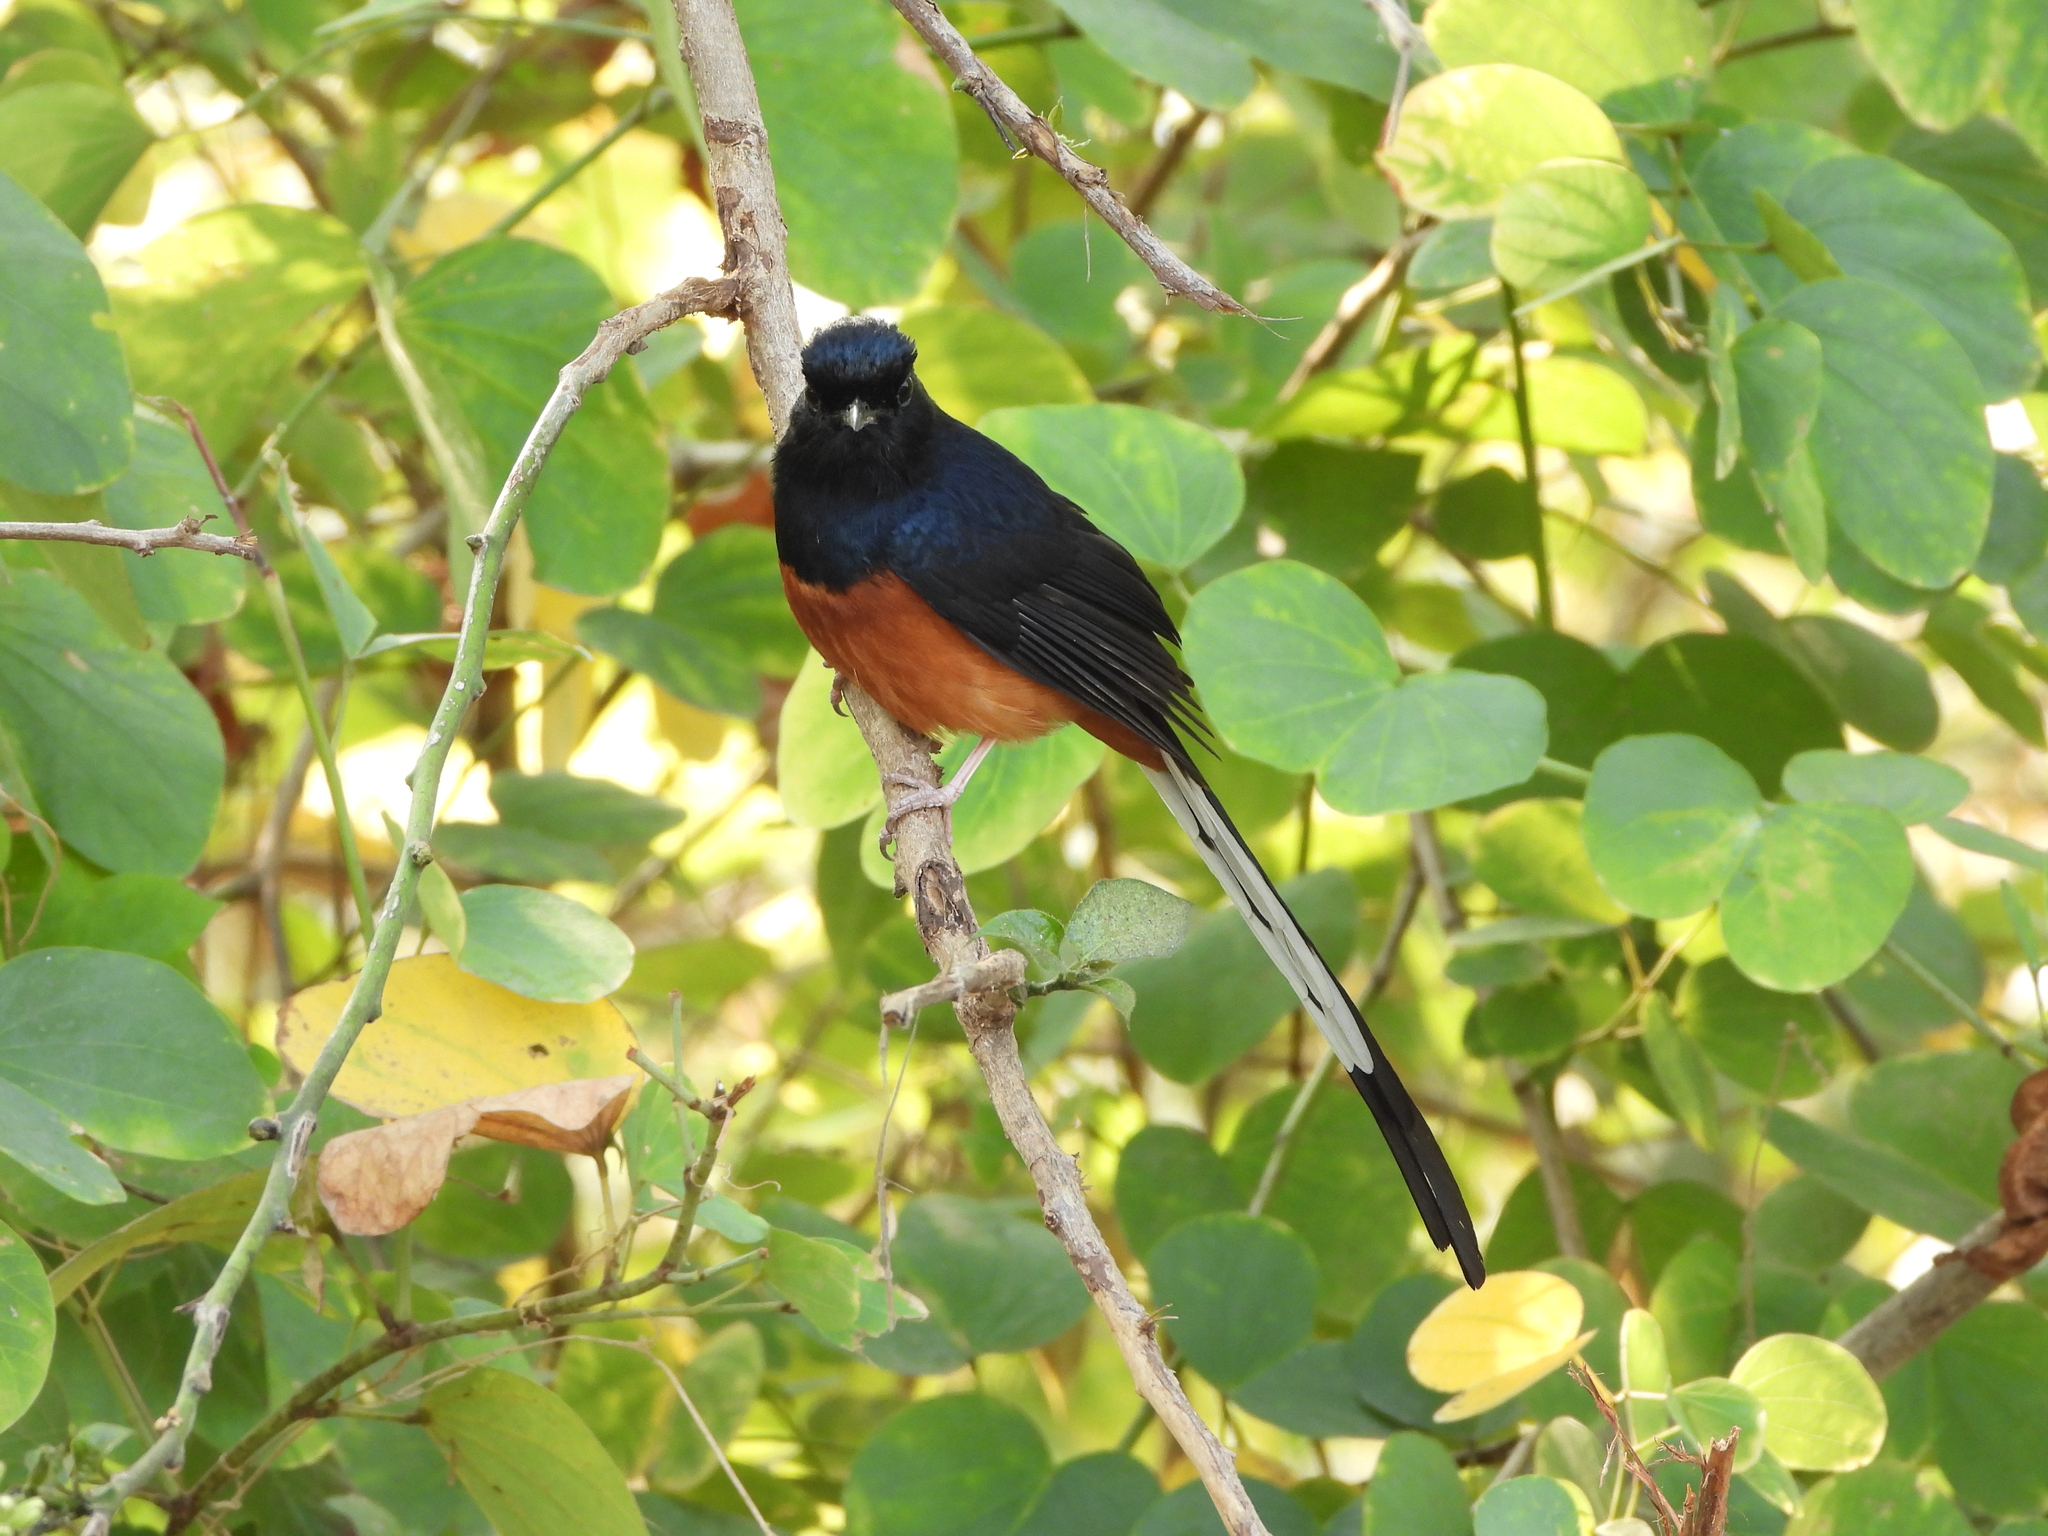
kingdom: Animalia
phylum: Chordata
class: Aves
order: Passeriformes
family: Muscicapidae
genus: Copsychus
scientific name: Copsychus malabaricus
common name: White-rumped shama
